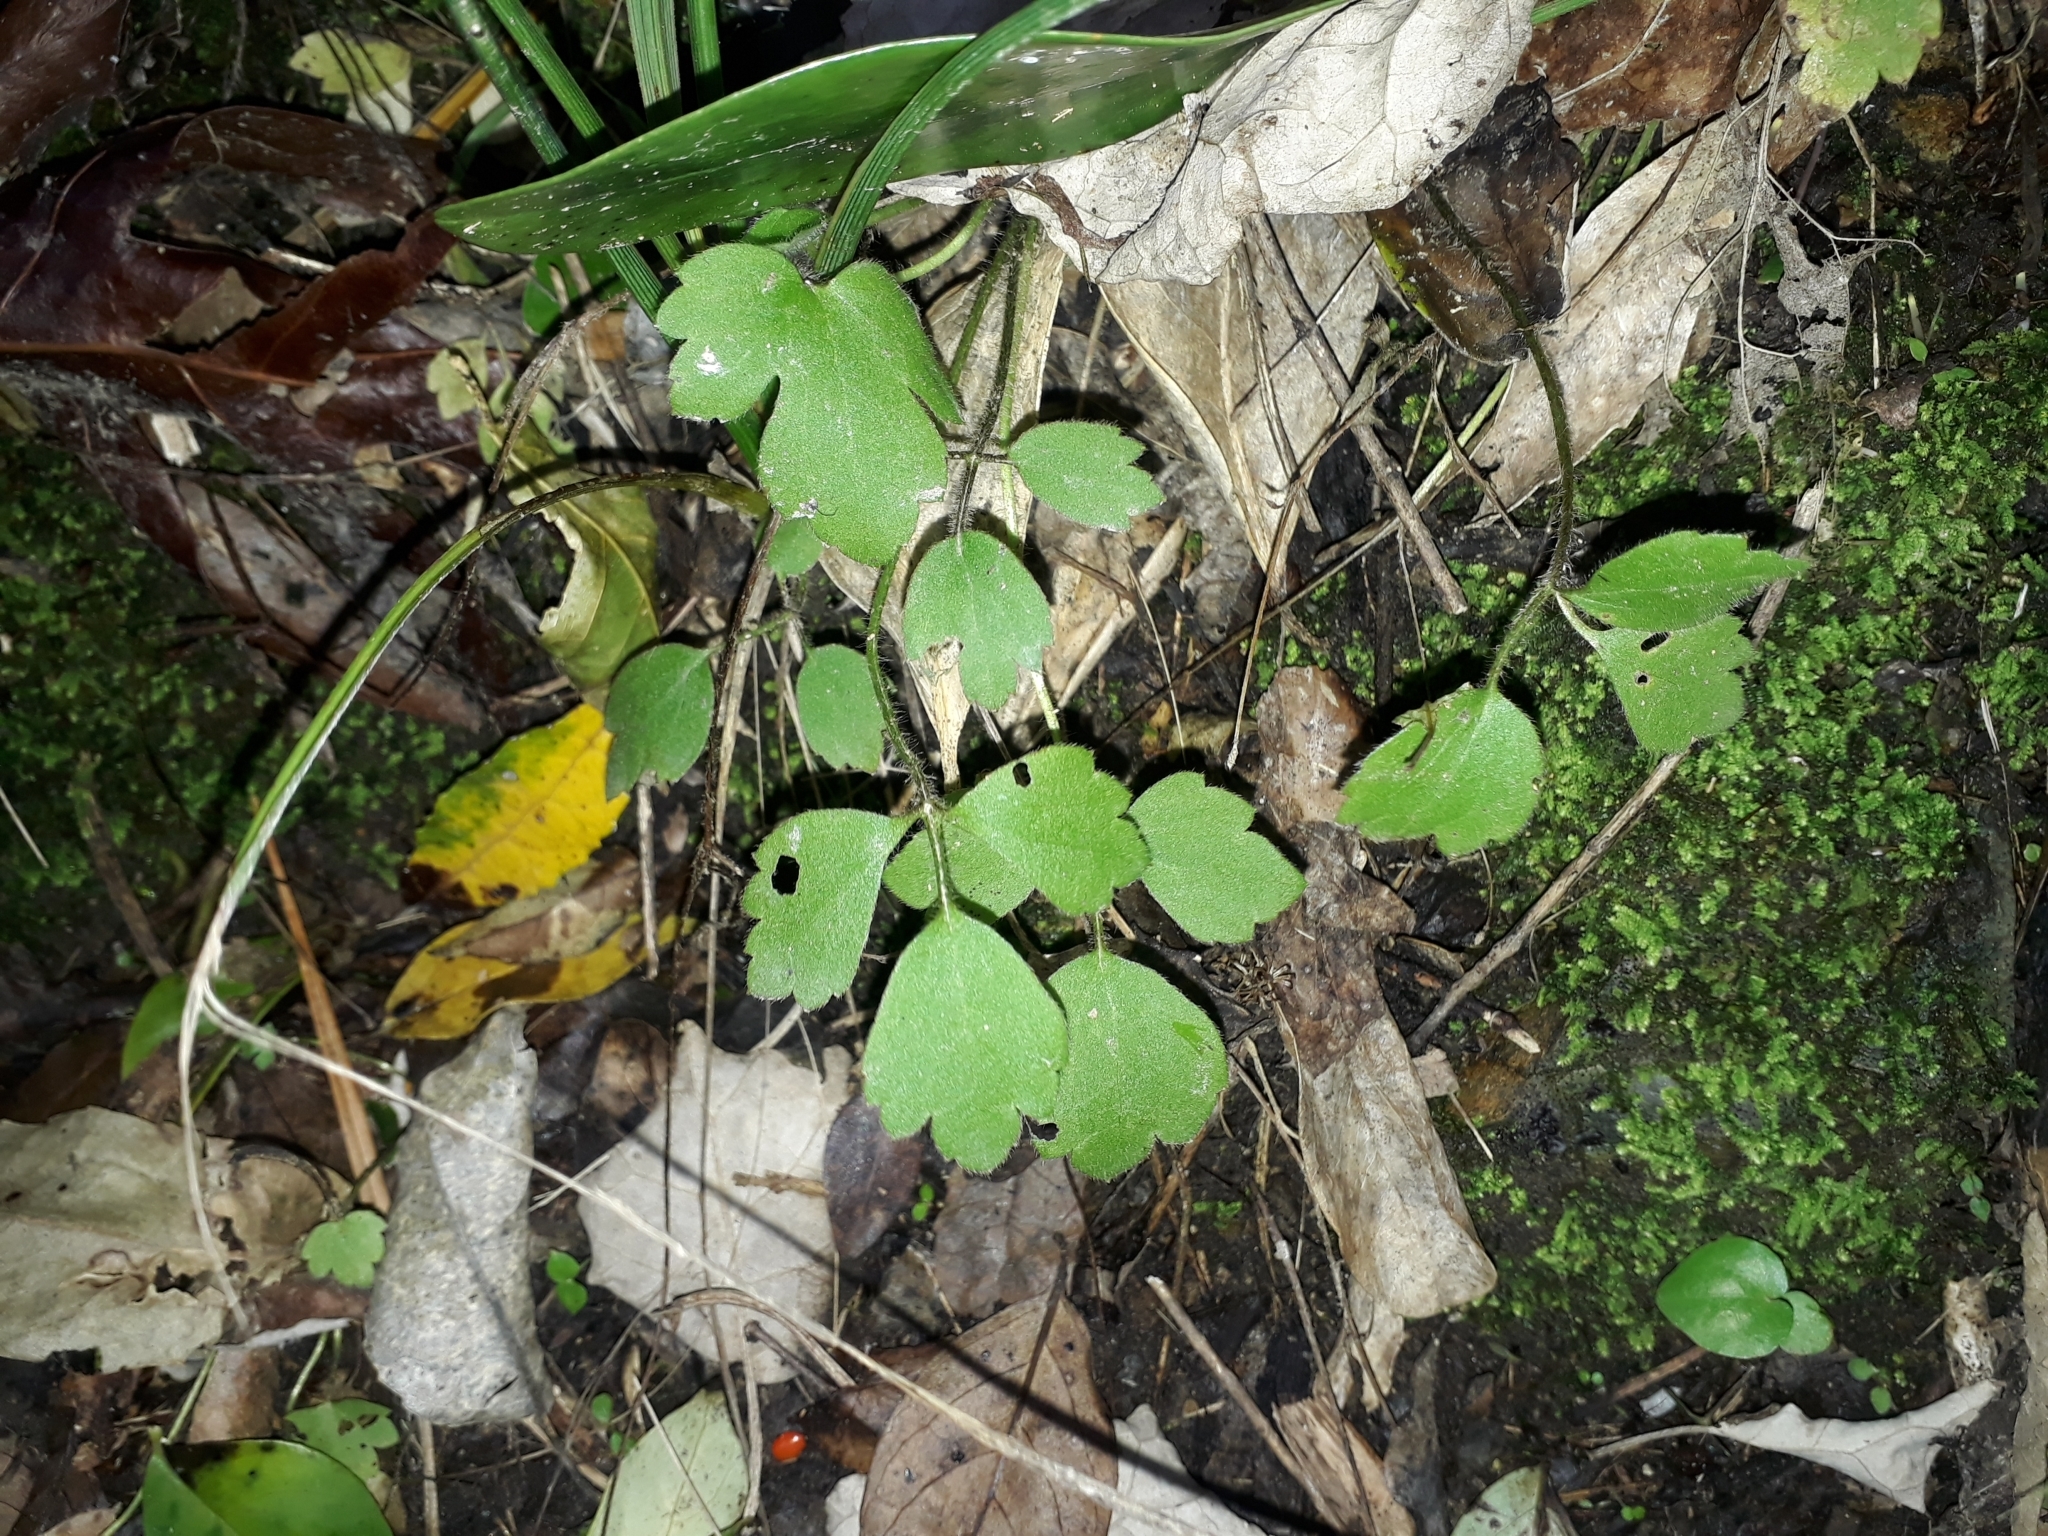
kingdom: Plantae
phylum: Tracheophyta
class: Magnoliopsida
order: Ranunculales
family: Ranunculaceae
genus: Ranunculus
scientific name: Ranunculus reflexus
